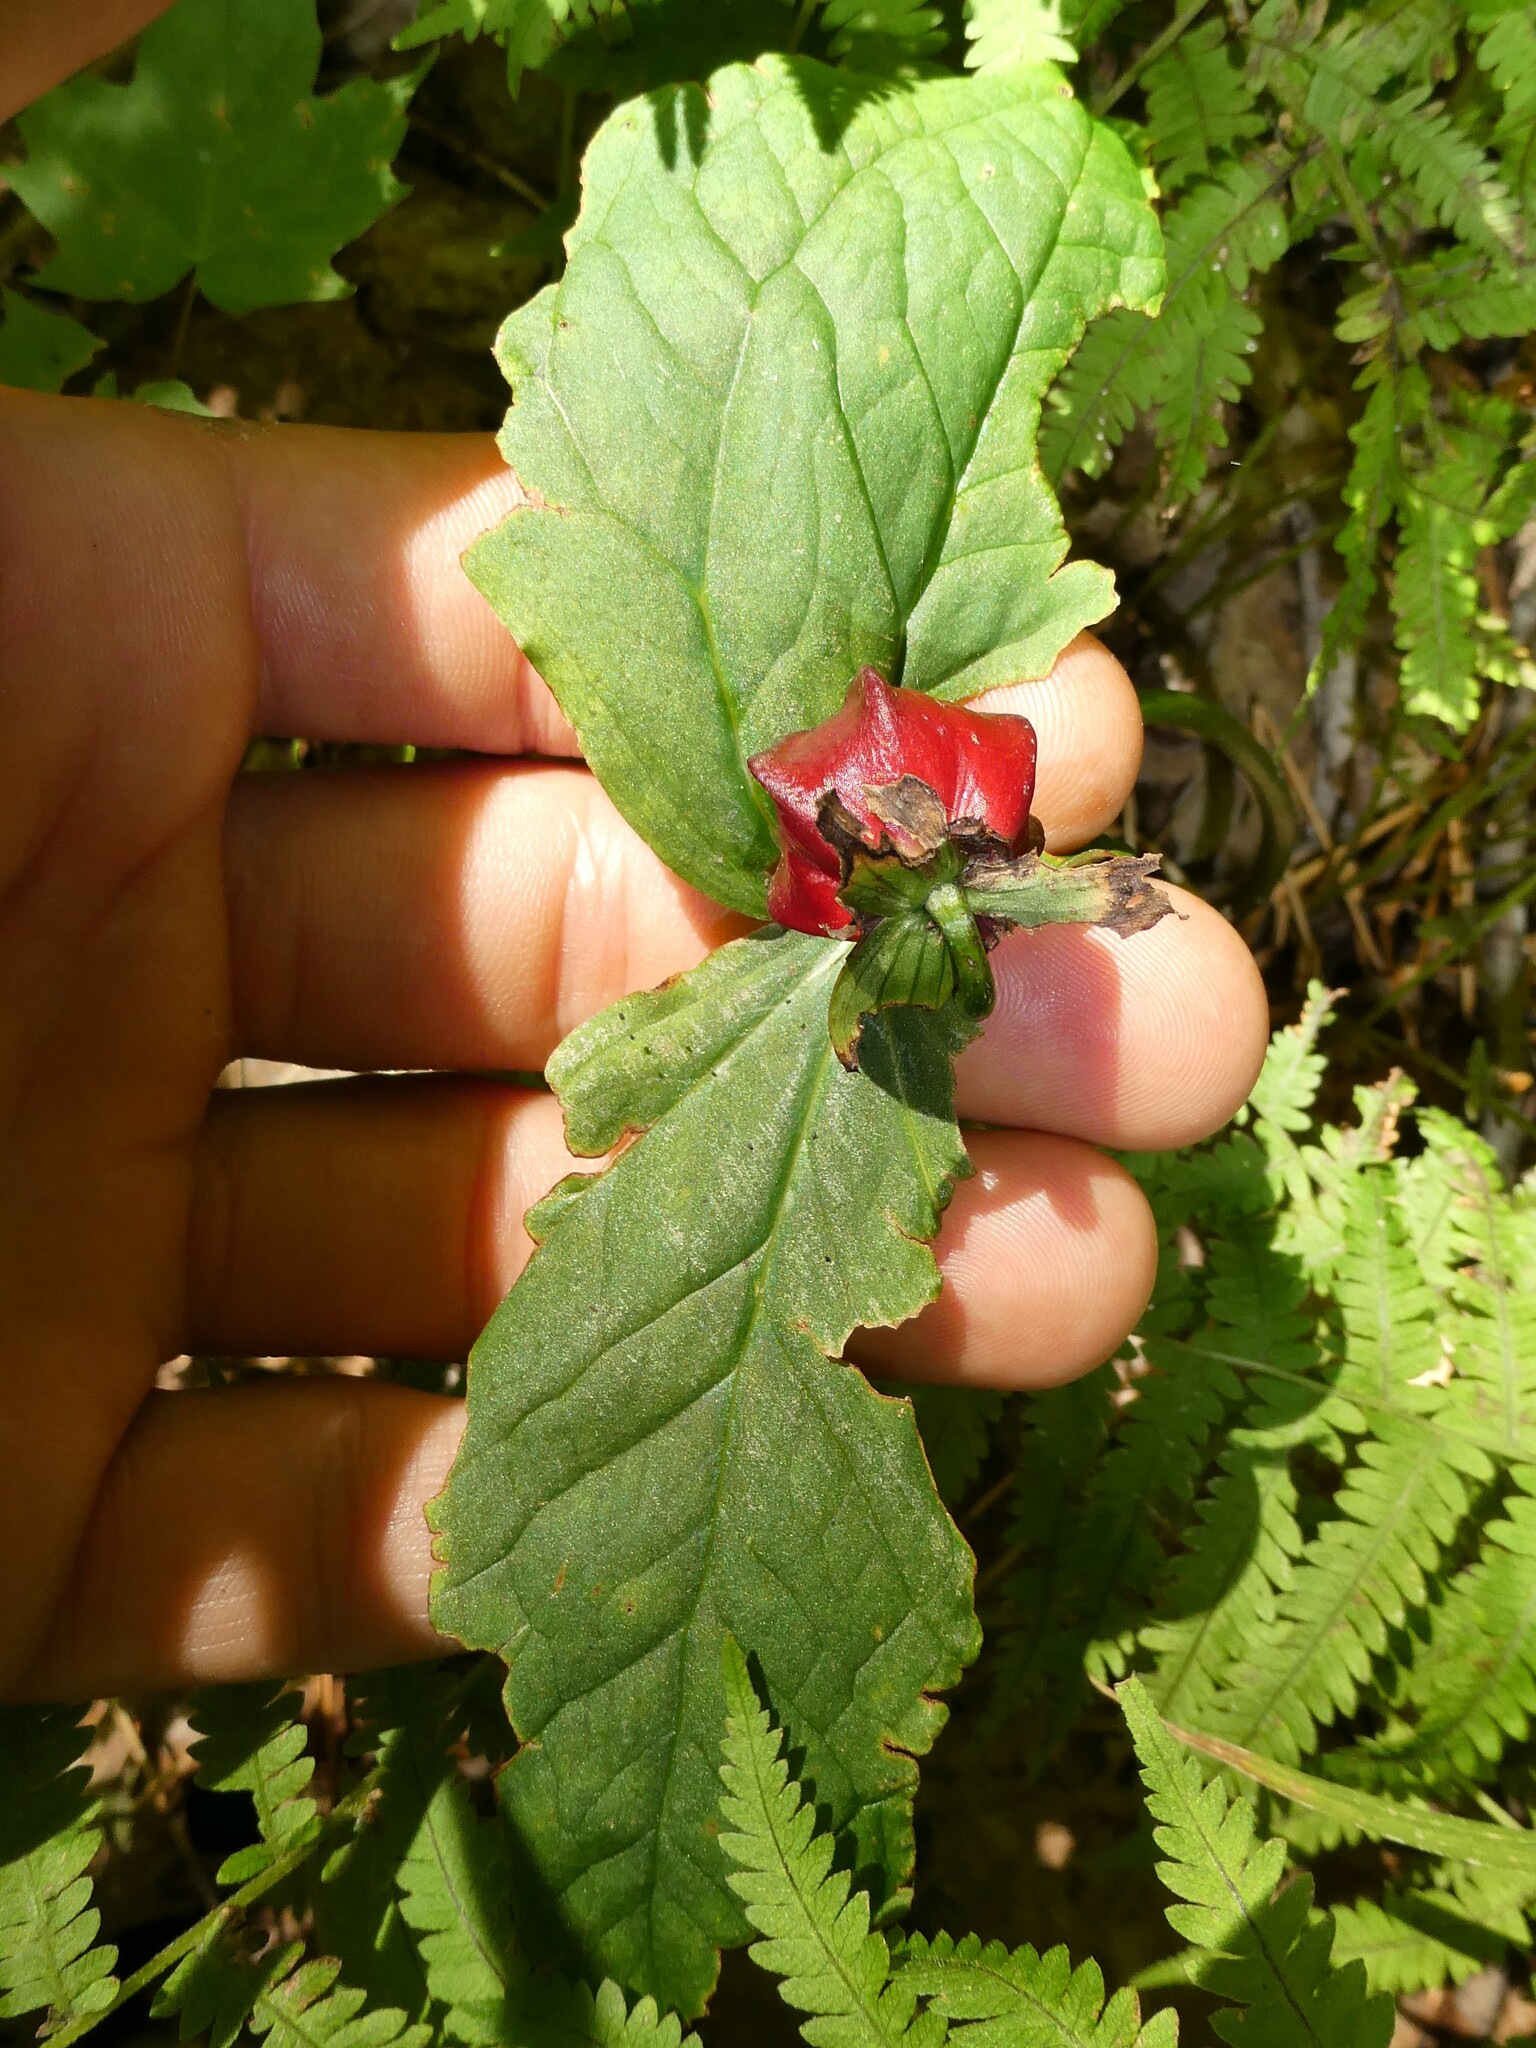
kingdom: Plantae
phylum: Tracheophyta
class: Liliopsida
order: Liliales
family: Melanthiaceae
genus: Trillium
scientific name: Trillium erectum
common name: Purple trillium
